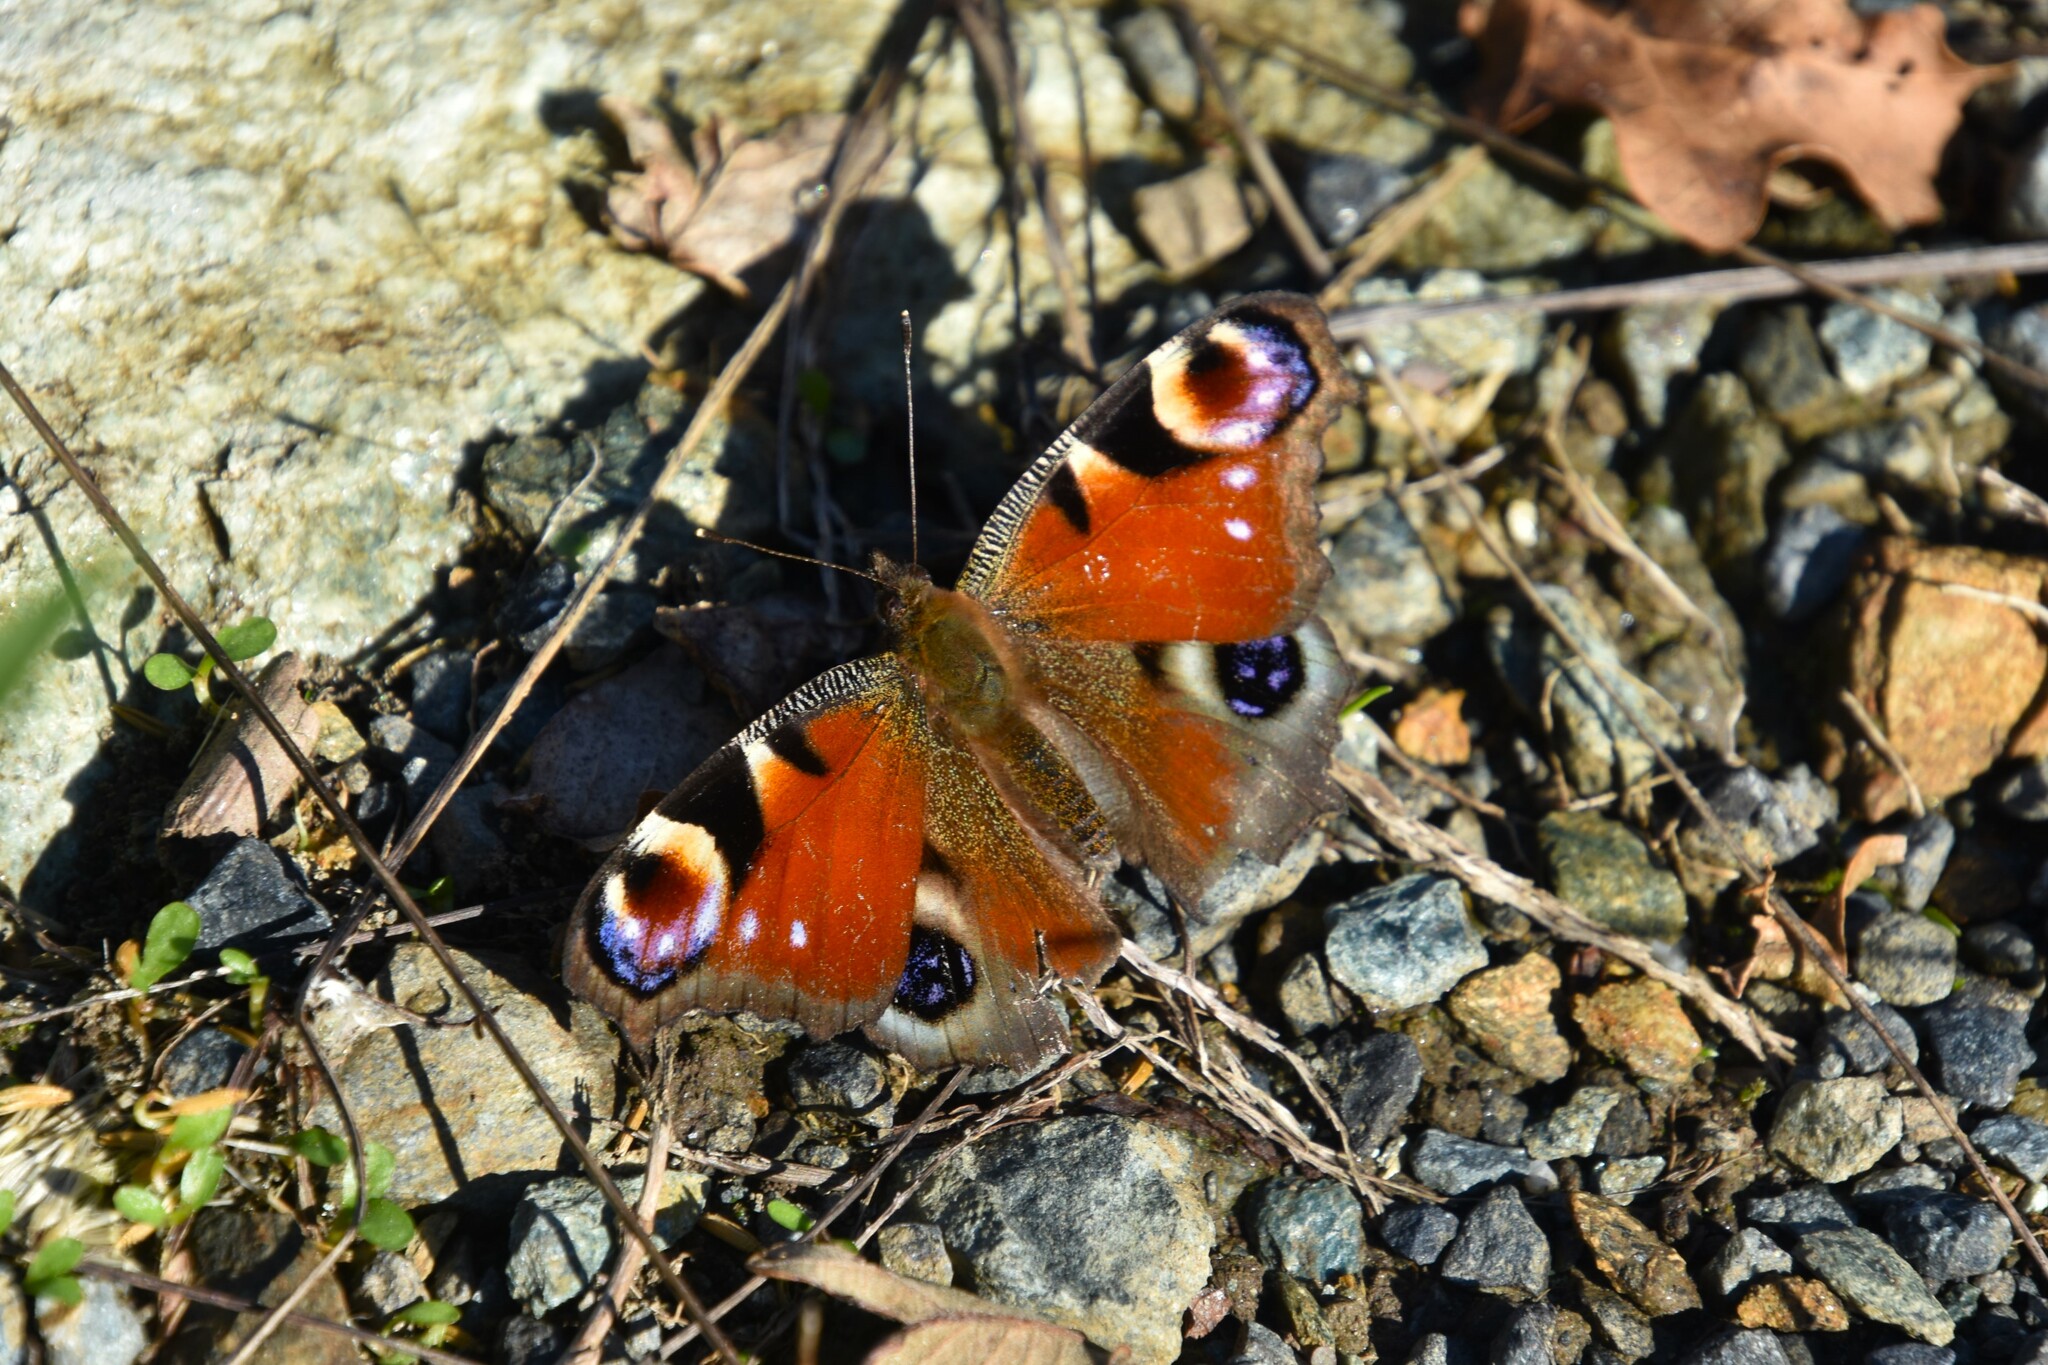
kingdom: Animalia
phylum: Arthropoda
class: Insecta
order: Lepidoptera
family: Nymphalidae
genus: Aglais
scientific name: Aglais io
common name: Peacock
